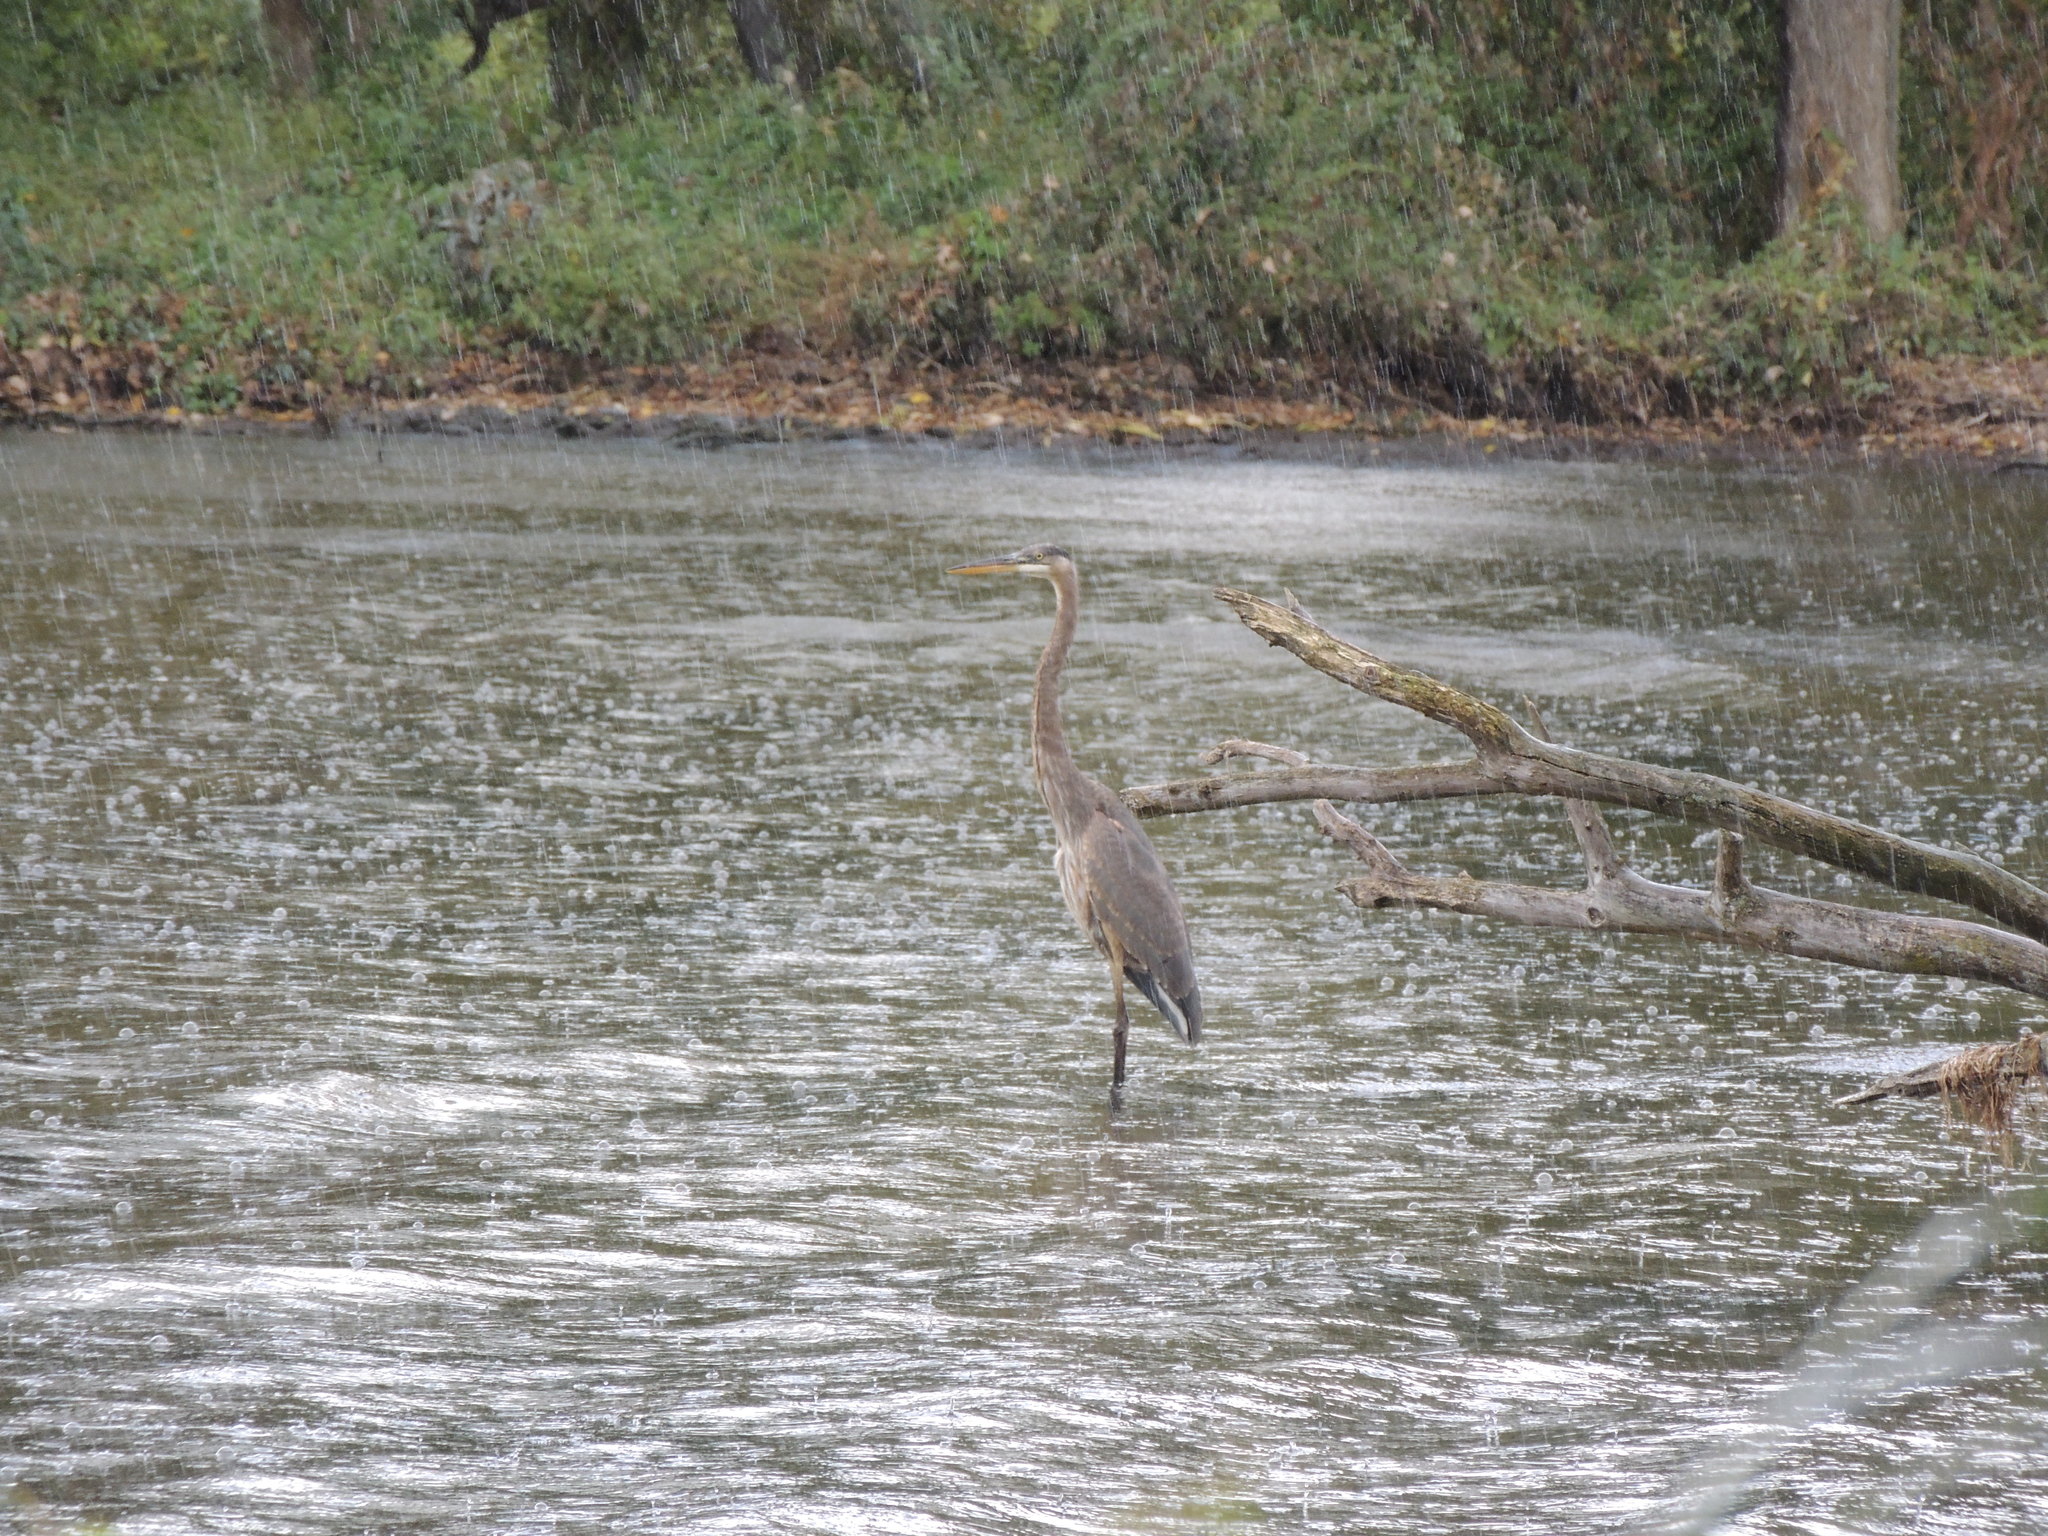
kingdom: Animalia
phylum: Chordata
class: Aves
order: Pelecaniformes
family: Ardeidae
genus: Ardea
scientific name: Ardea herodias
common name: Great blue heron
